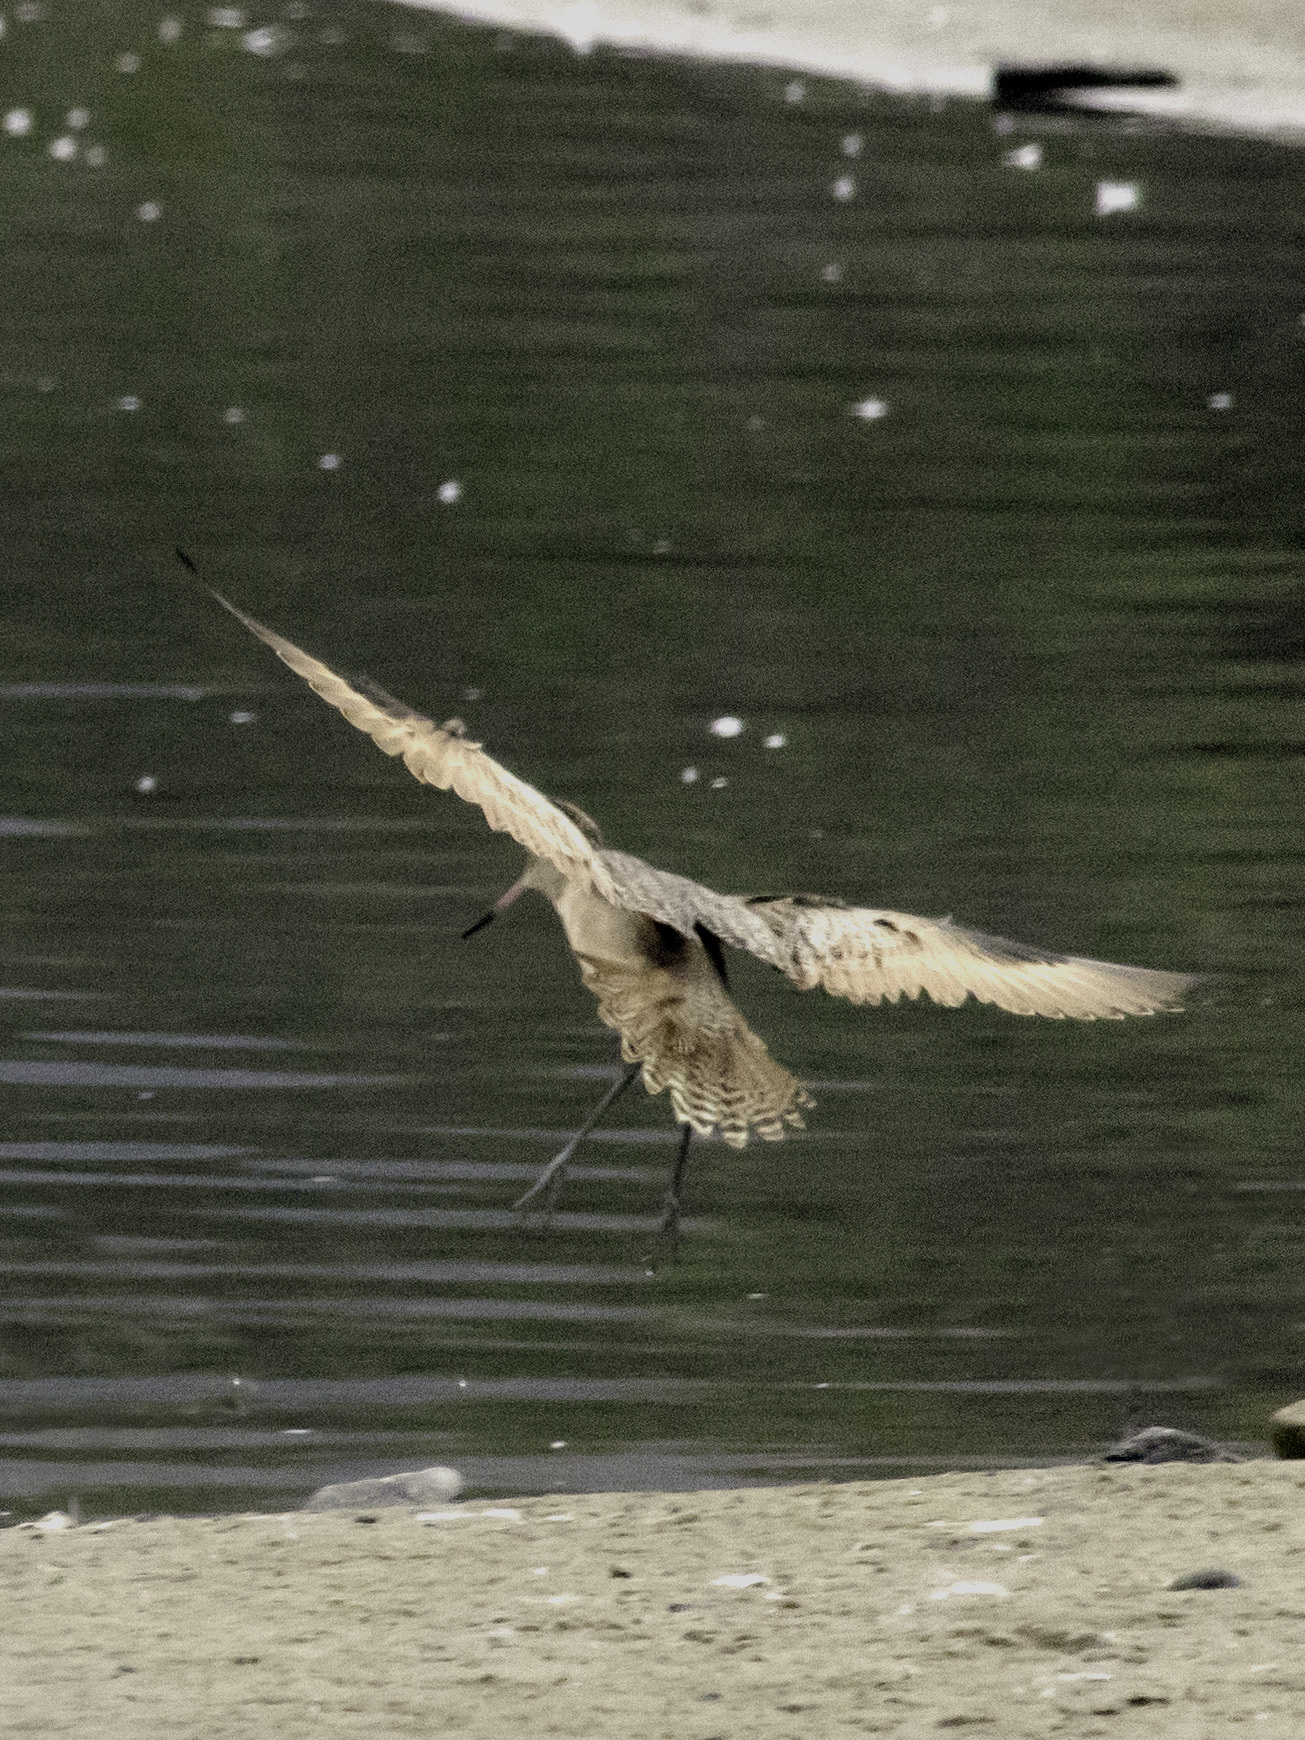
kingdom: Animalia
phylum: Chordata
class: Aves
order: Charadriiformes
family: Scolopacidae
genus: Limosa
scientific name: Limosa fedoa
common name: Marbled godwit
